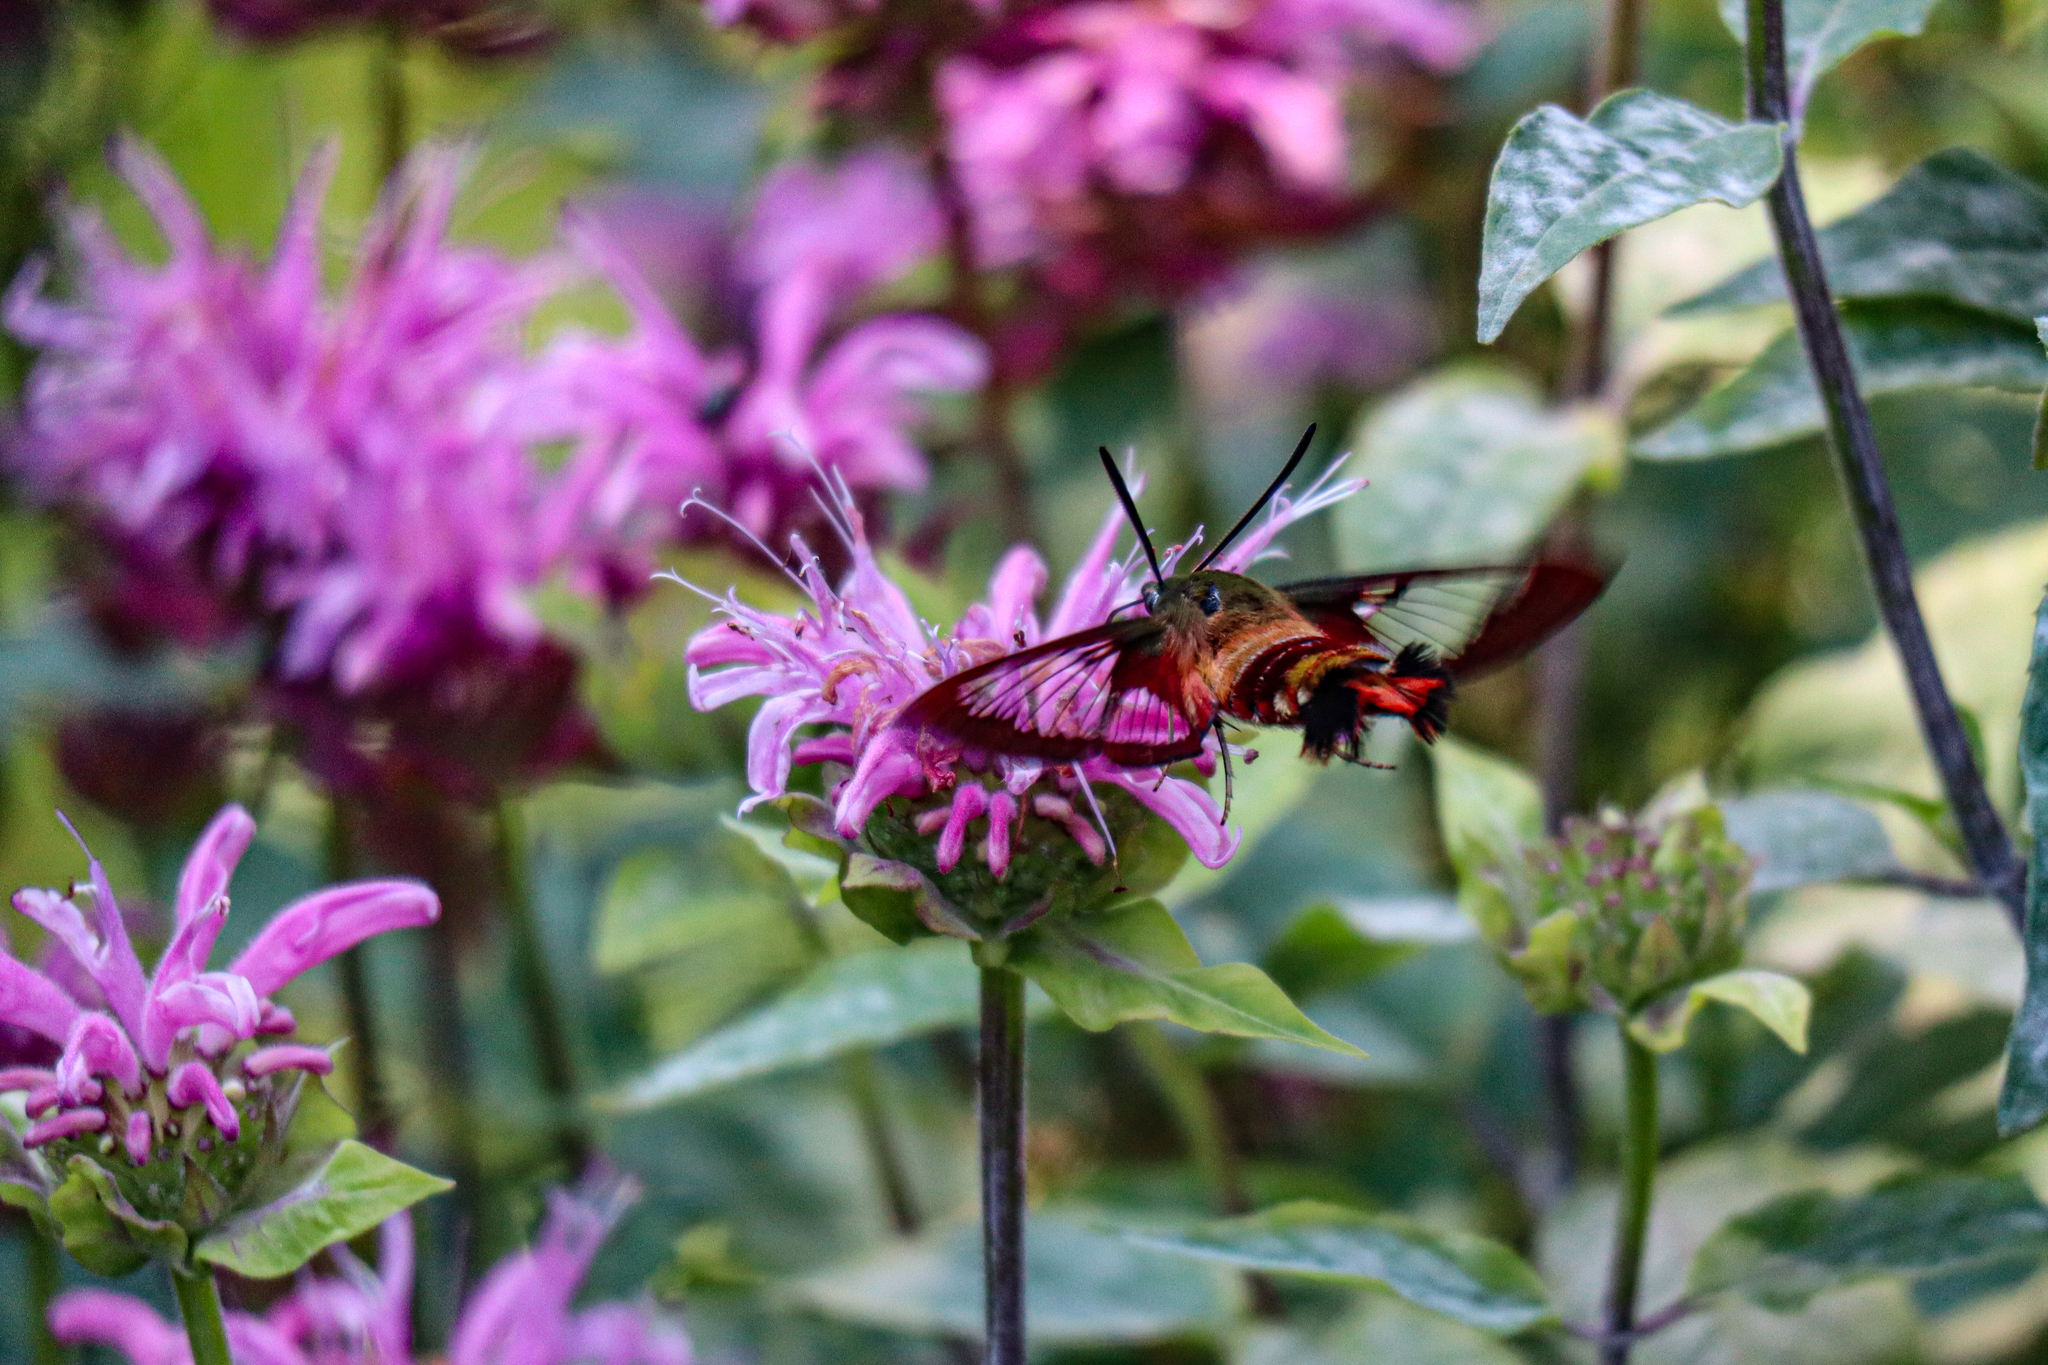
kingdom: Animalia
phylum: Arthropoda
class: Insecta
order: Lepidoptera
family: Sphingidae
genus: Hemaris
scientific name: Hemaris thysbe
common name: Common clear-wing
